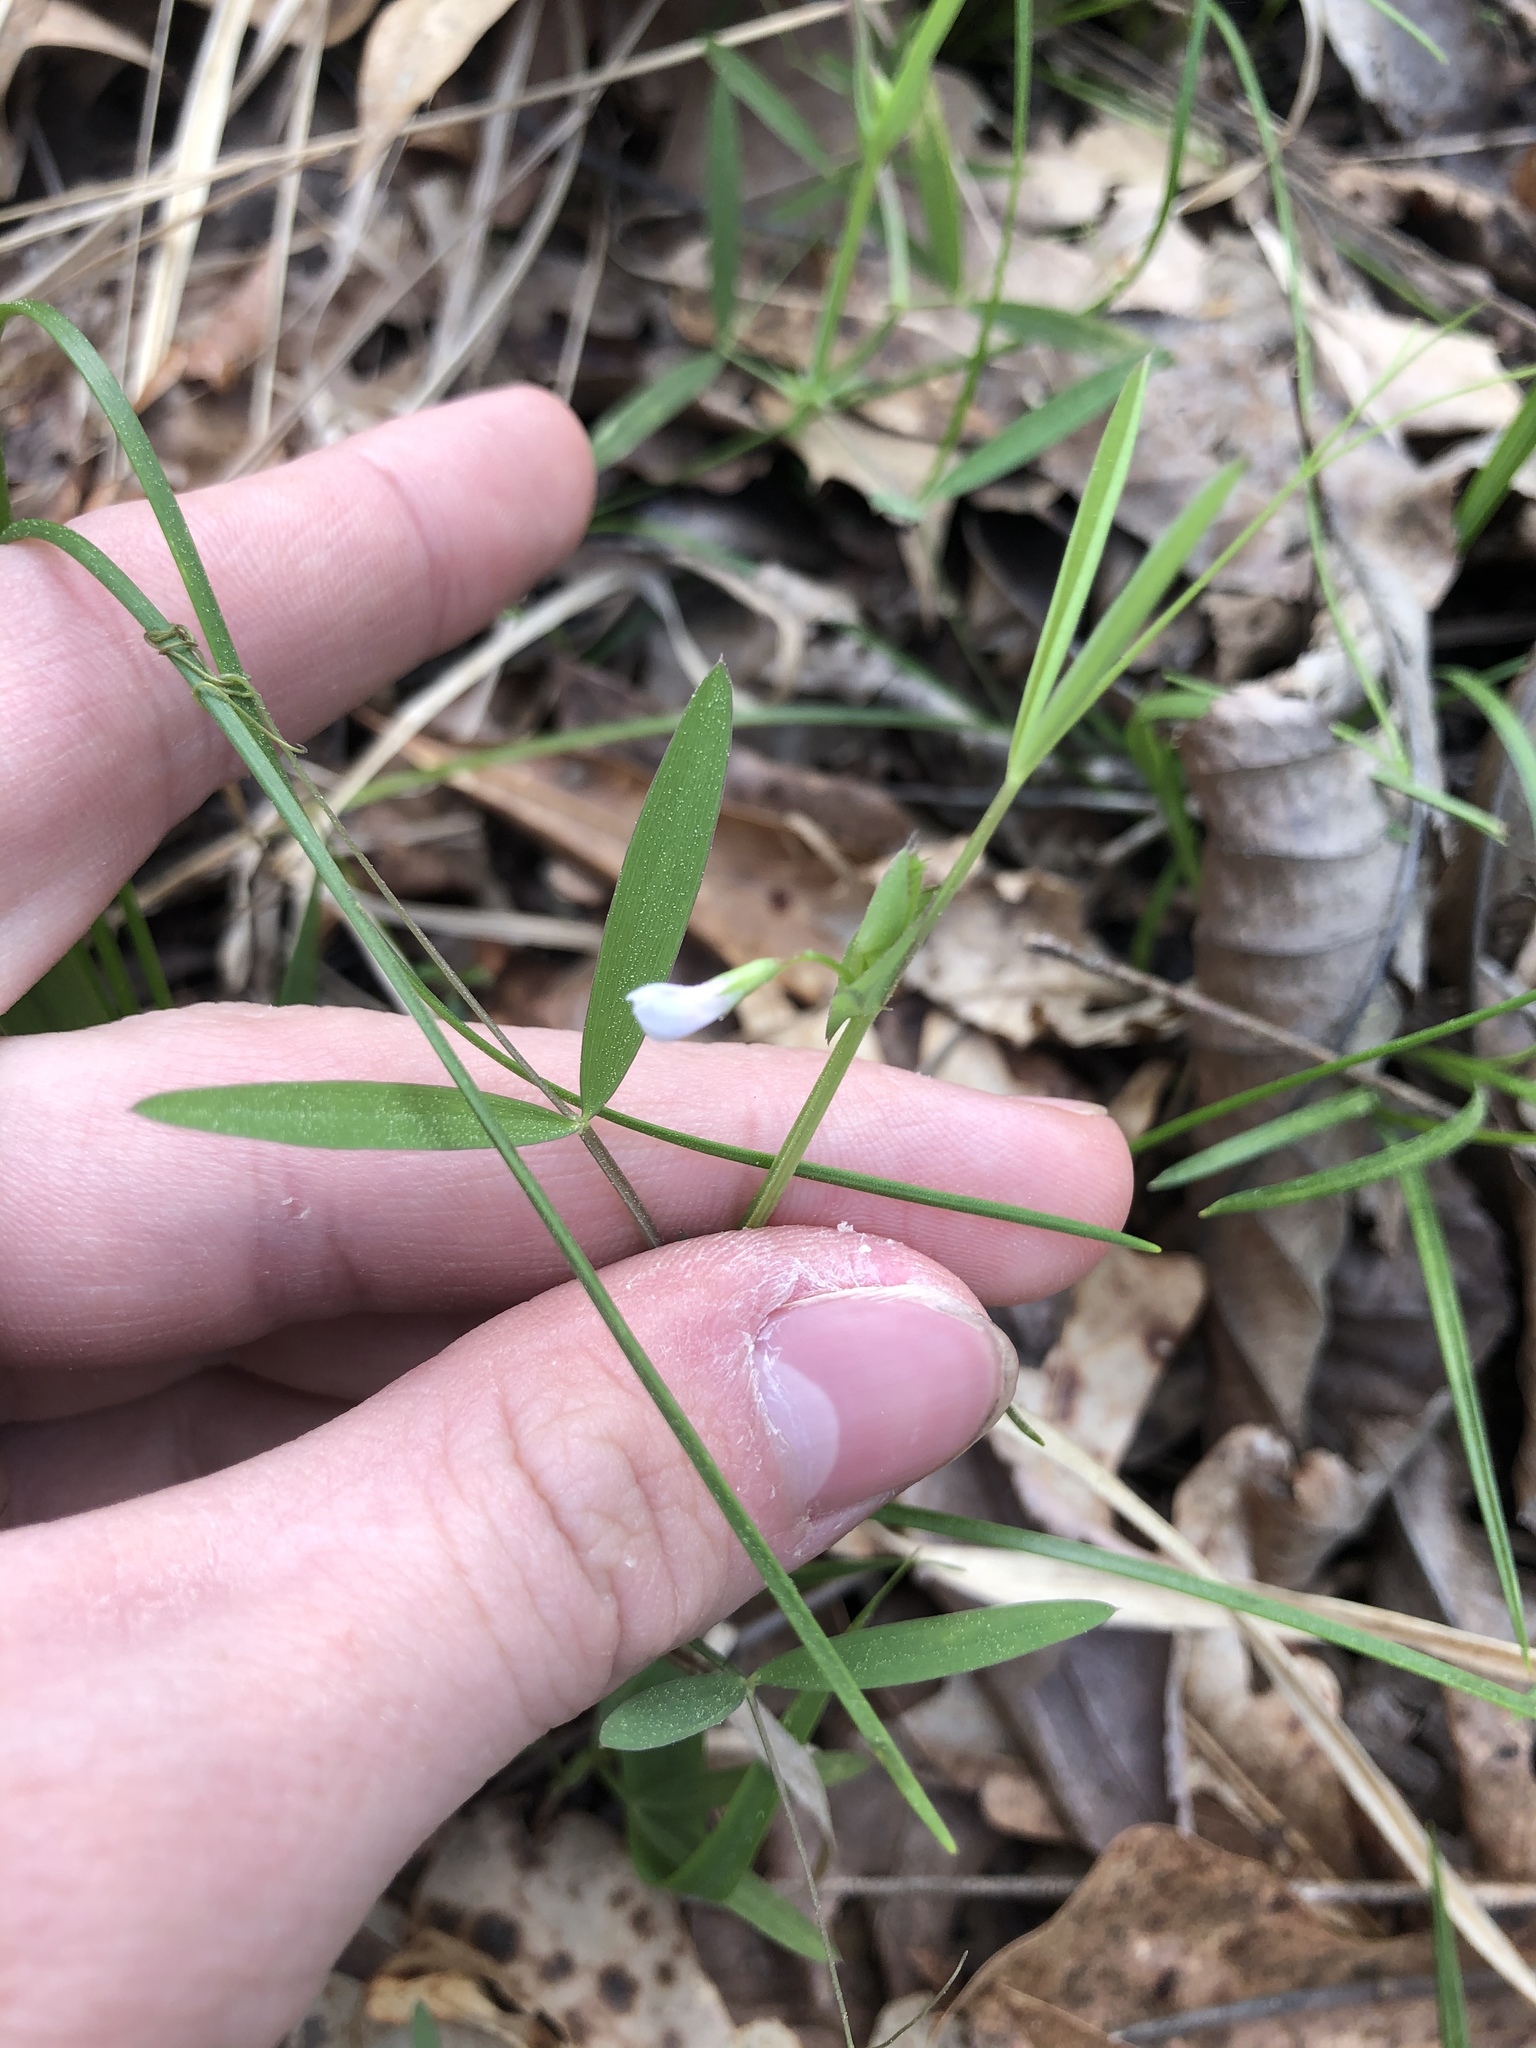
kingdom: Plantae
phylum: Tracheophyta
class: Magnoliopsida
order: Fabales
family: Fabaceae
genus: Lathyrus
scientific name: Lathyrus pusillus
